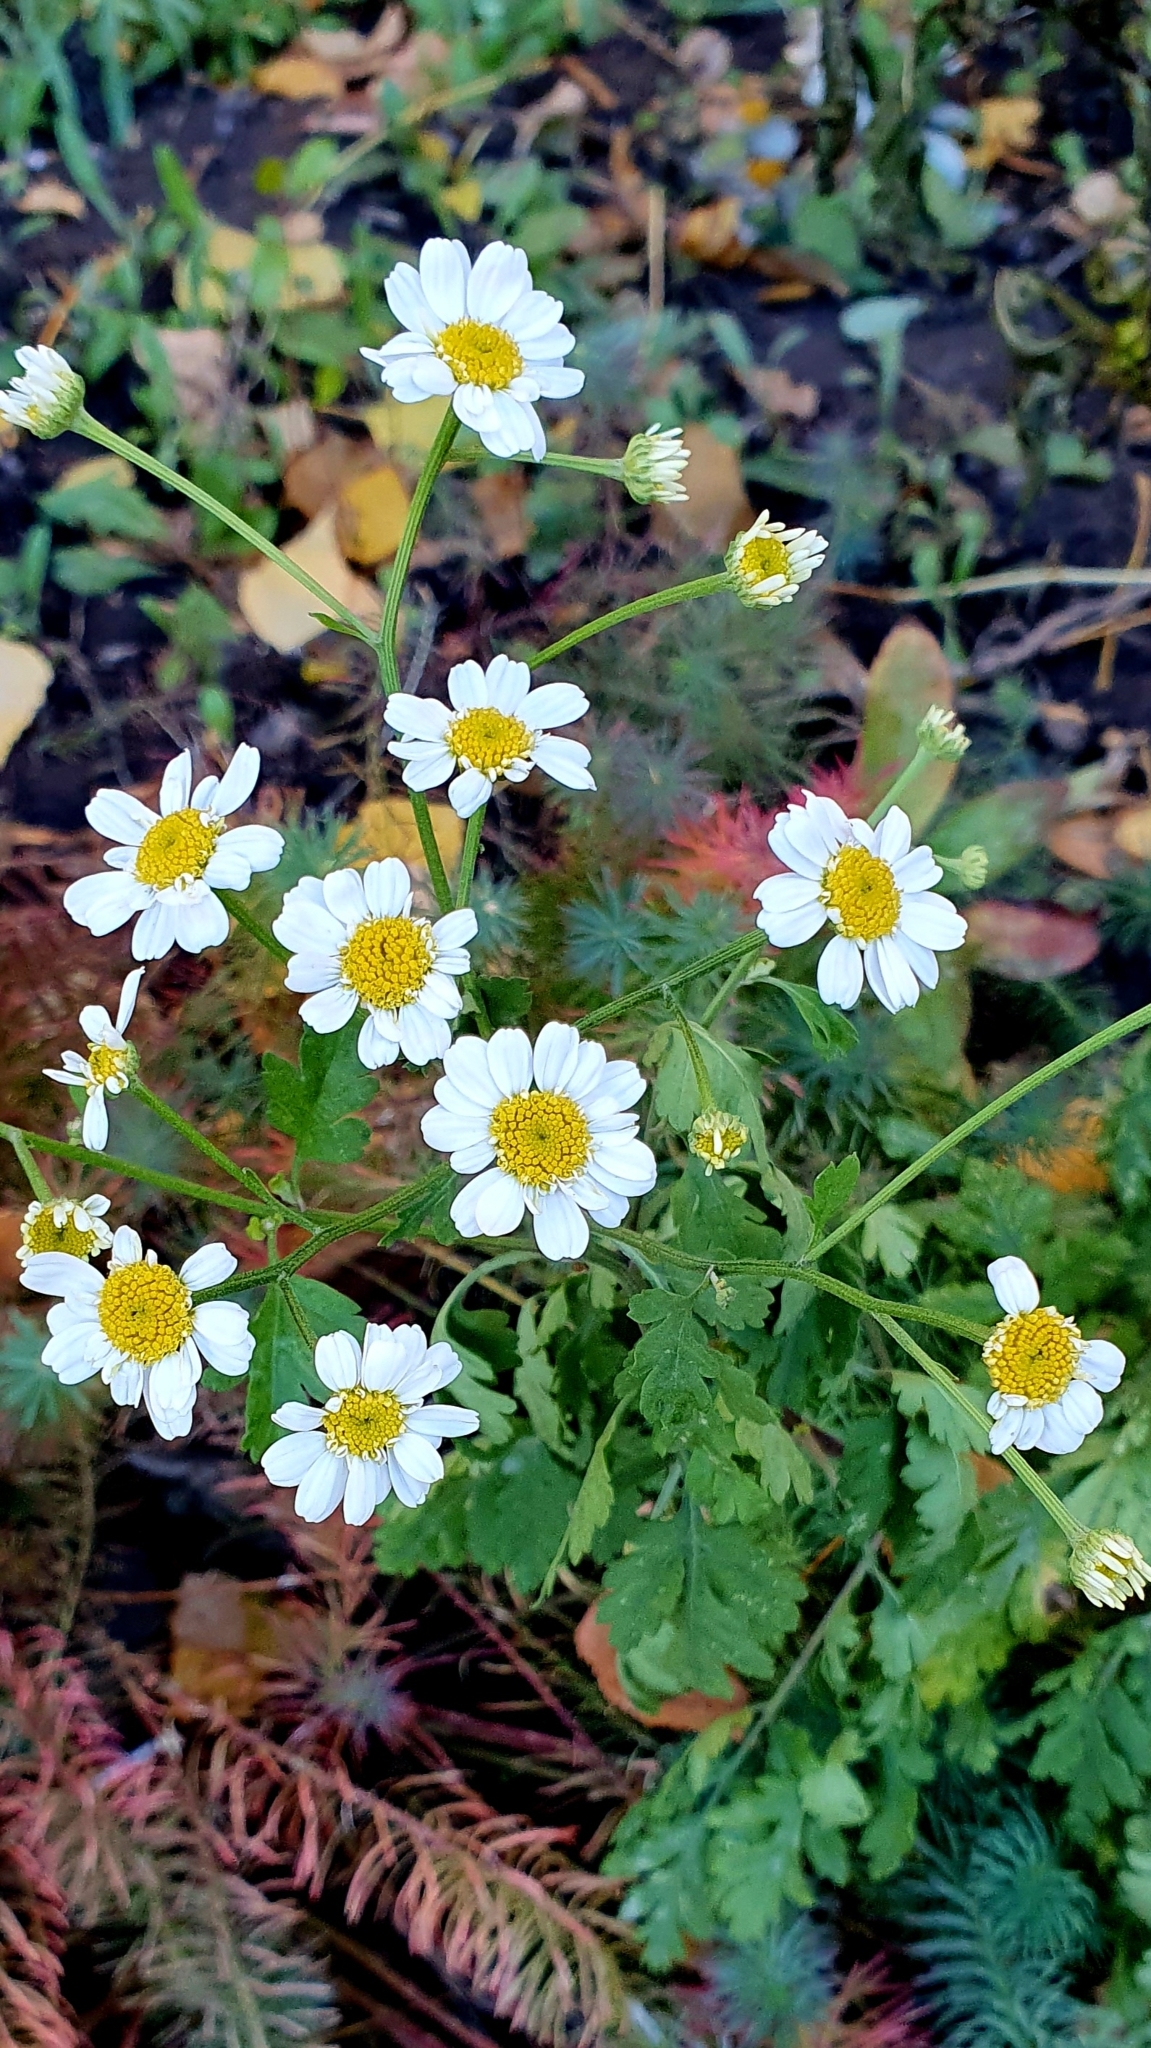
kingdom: Plantae
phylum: Tracheophyta
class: Magnoliopsida
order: Asterales
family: Asteraceae
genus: Tanacetum
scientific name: Tanacetum parthenium
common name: Feverfew
